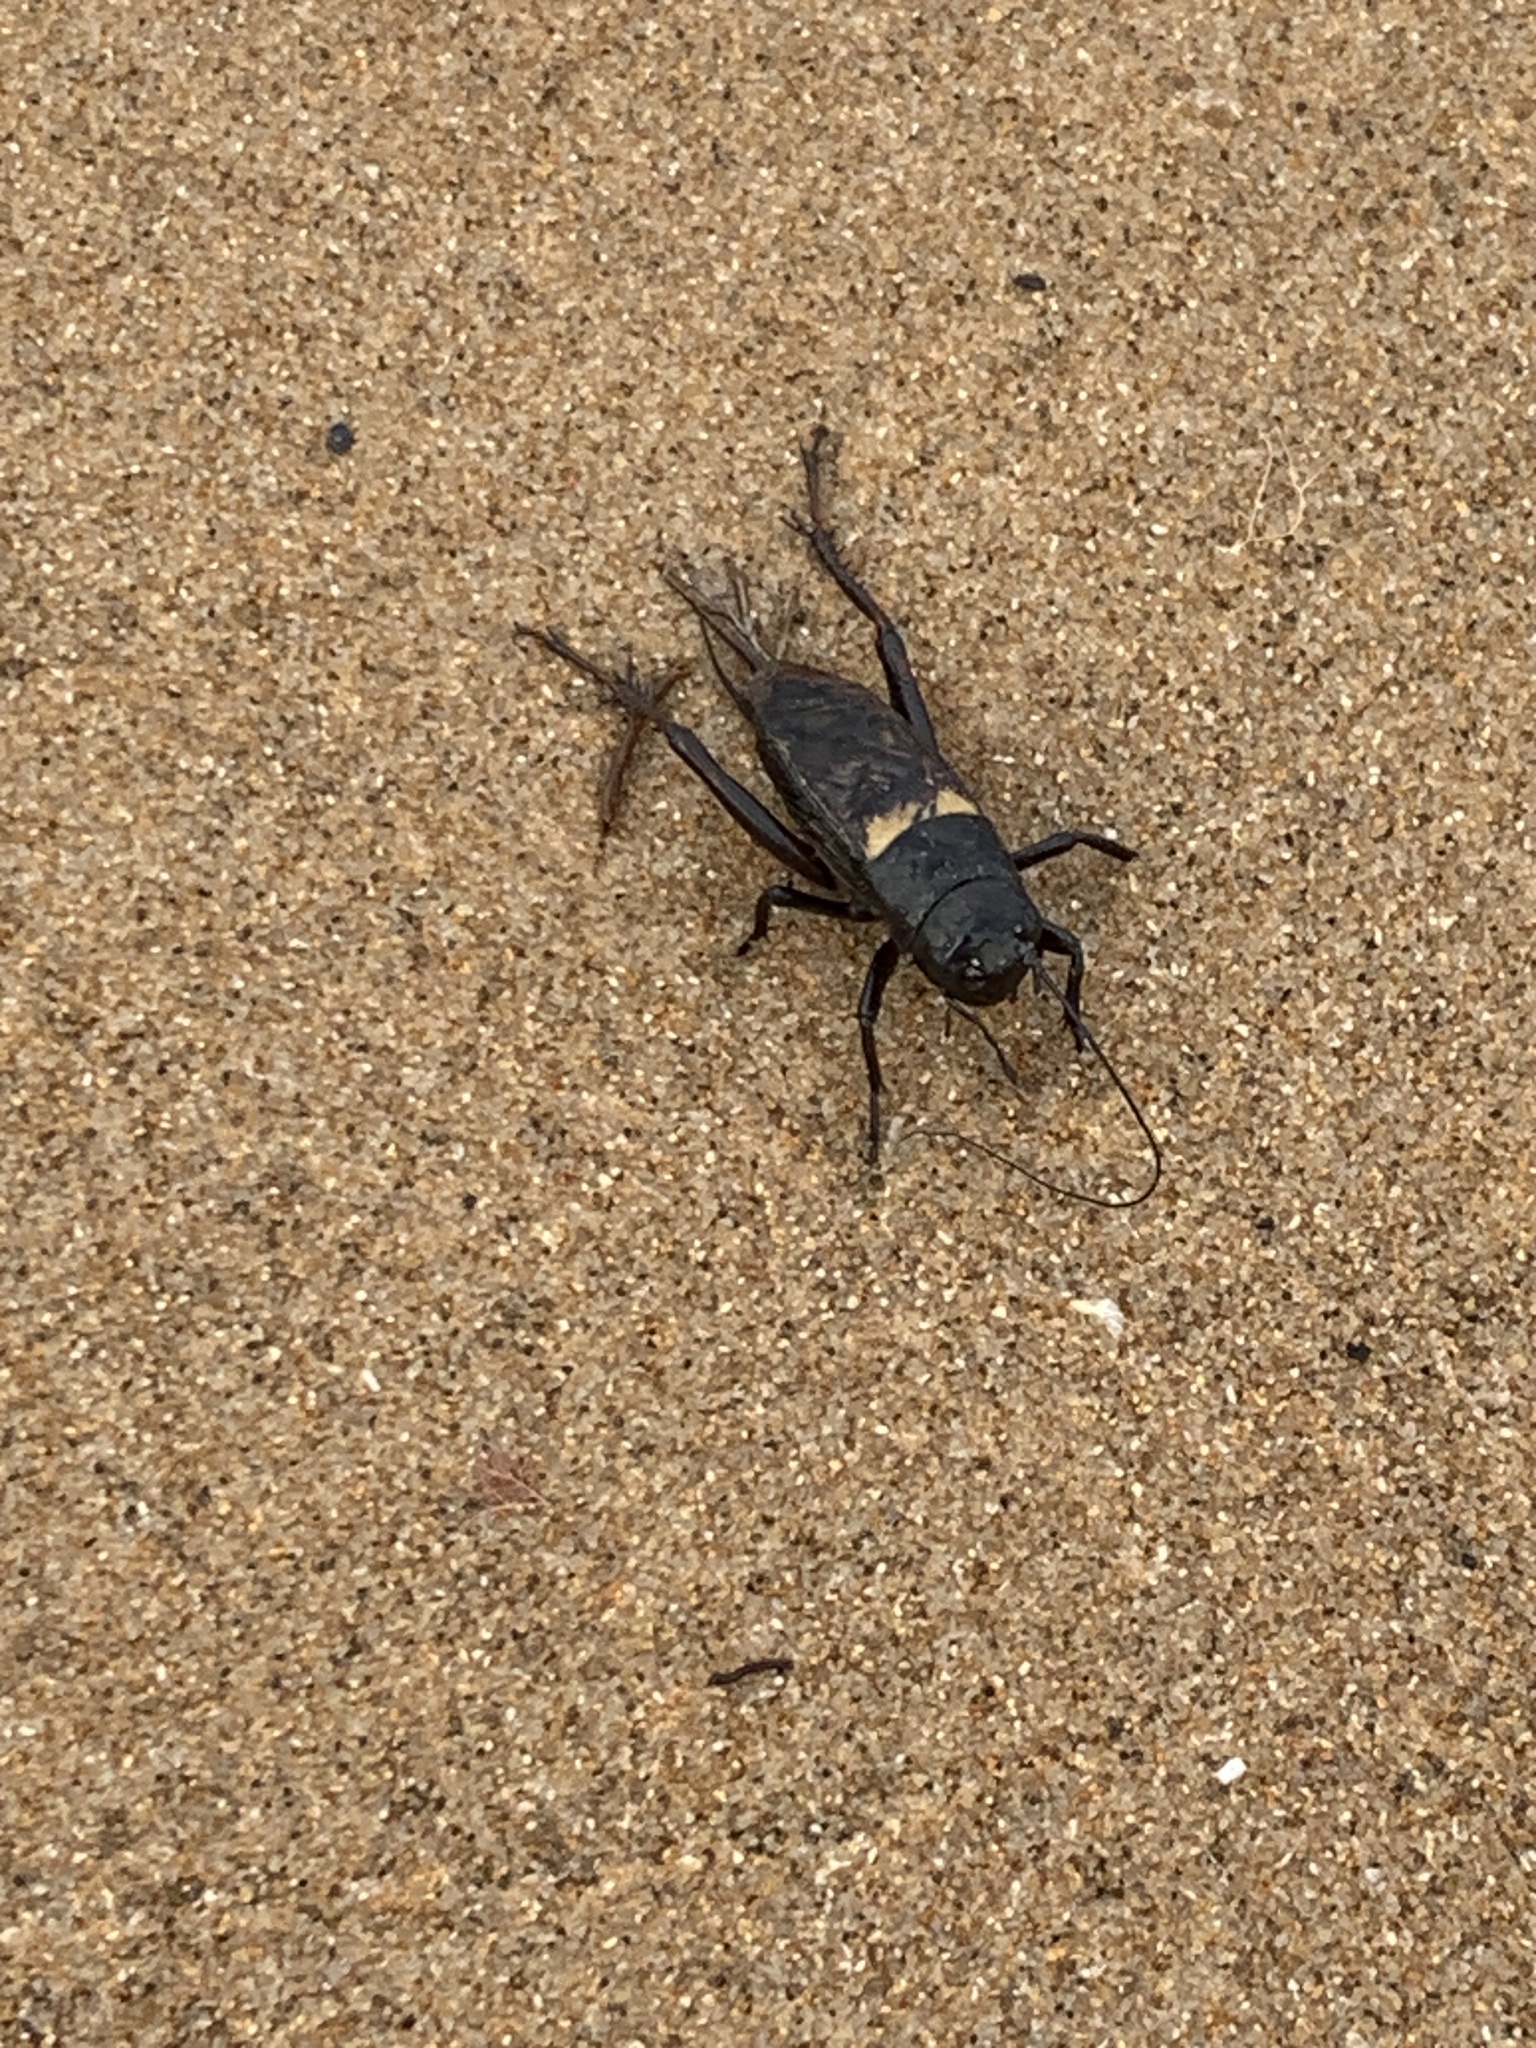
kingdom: Animalia
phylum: Arthropoda
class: Insecta
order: Orthoptera
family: Gryllidae
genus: Gryllus
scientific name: Gryllus bimaculatus
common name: Two-spotted cricket
